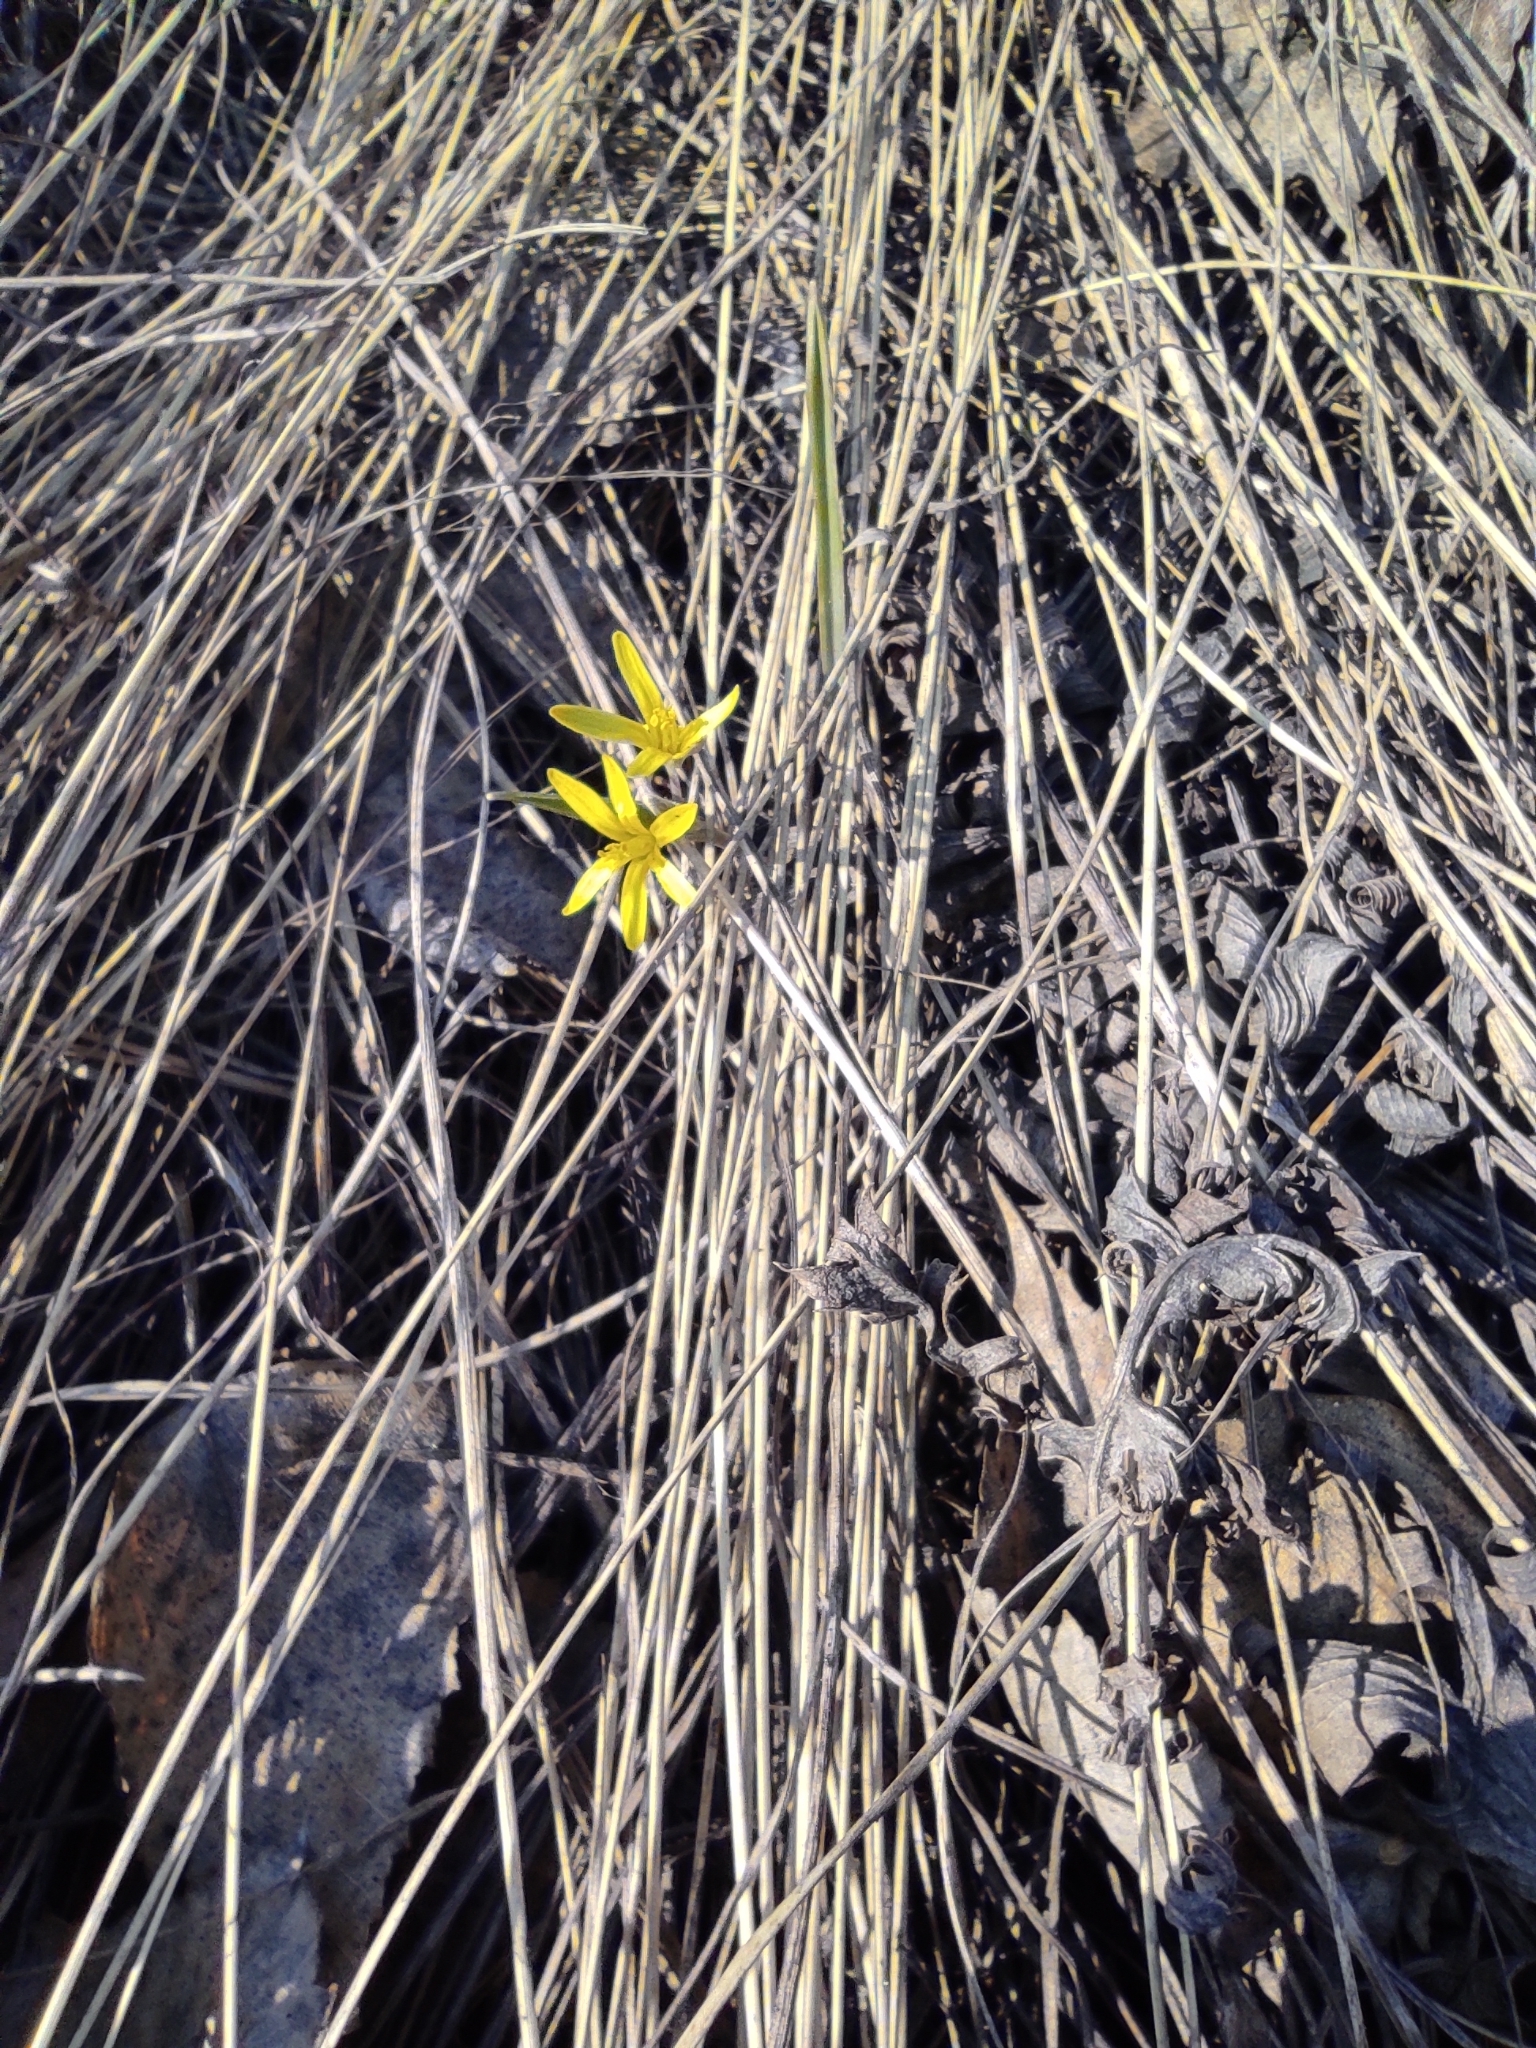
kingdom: Plantae
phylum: Tracheophyta
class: Liliopsida
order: Liliales
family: Liliaceae
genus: Gagea
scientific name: Gagea fedtschenkoana
